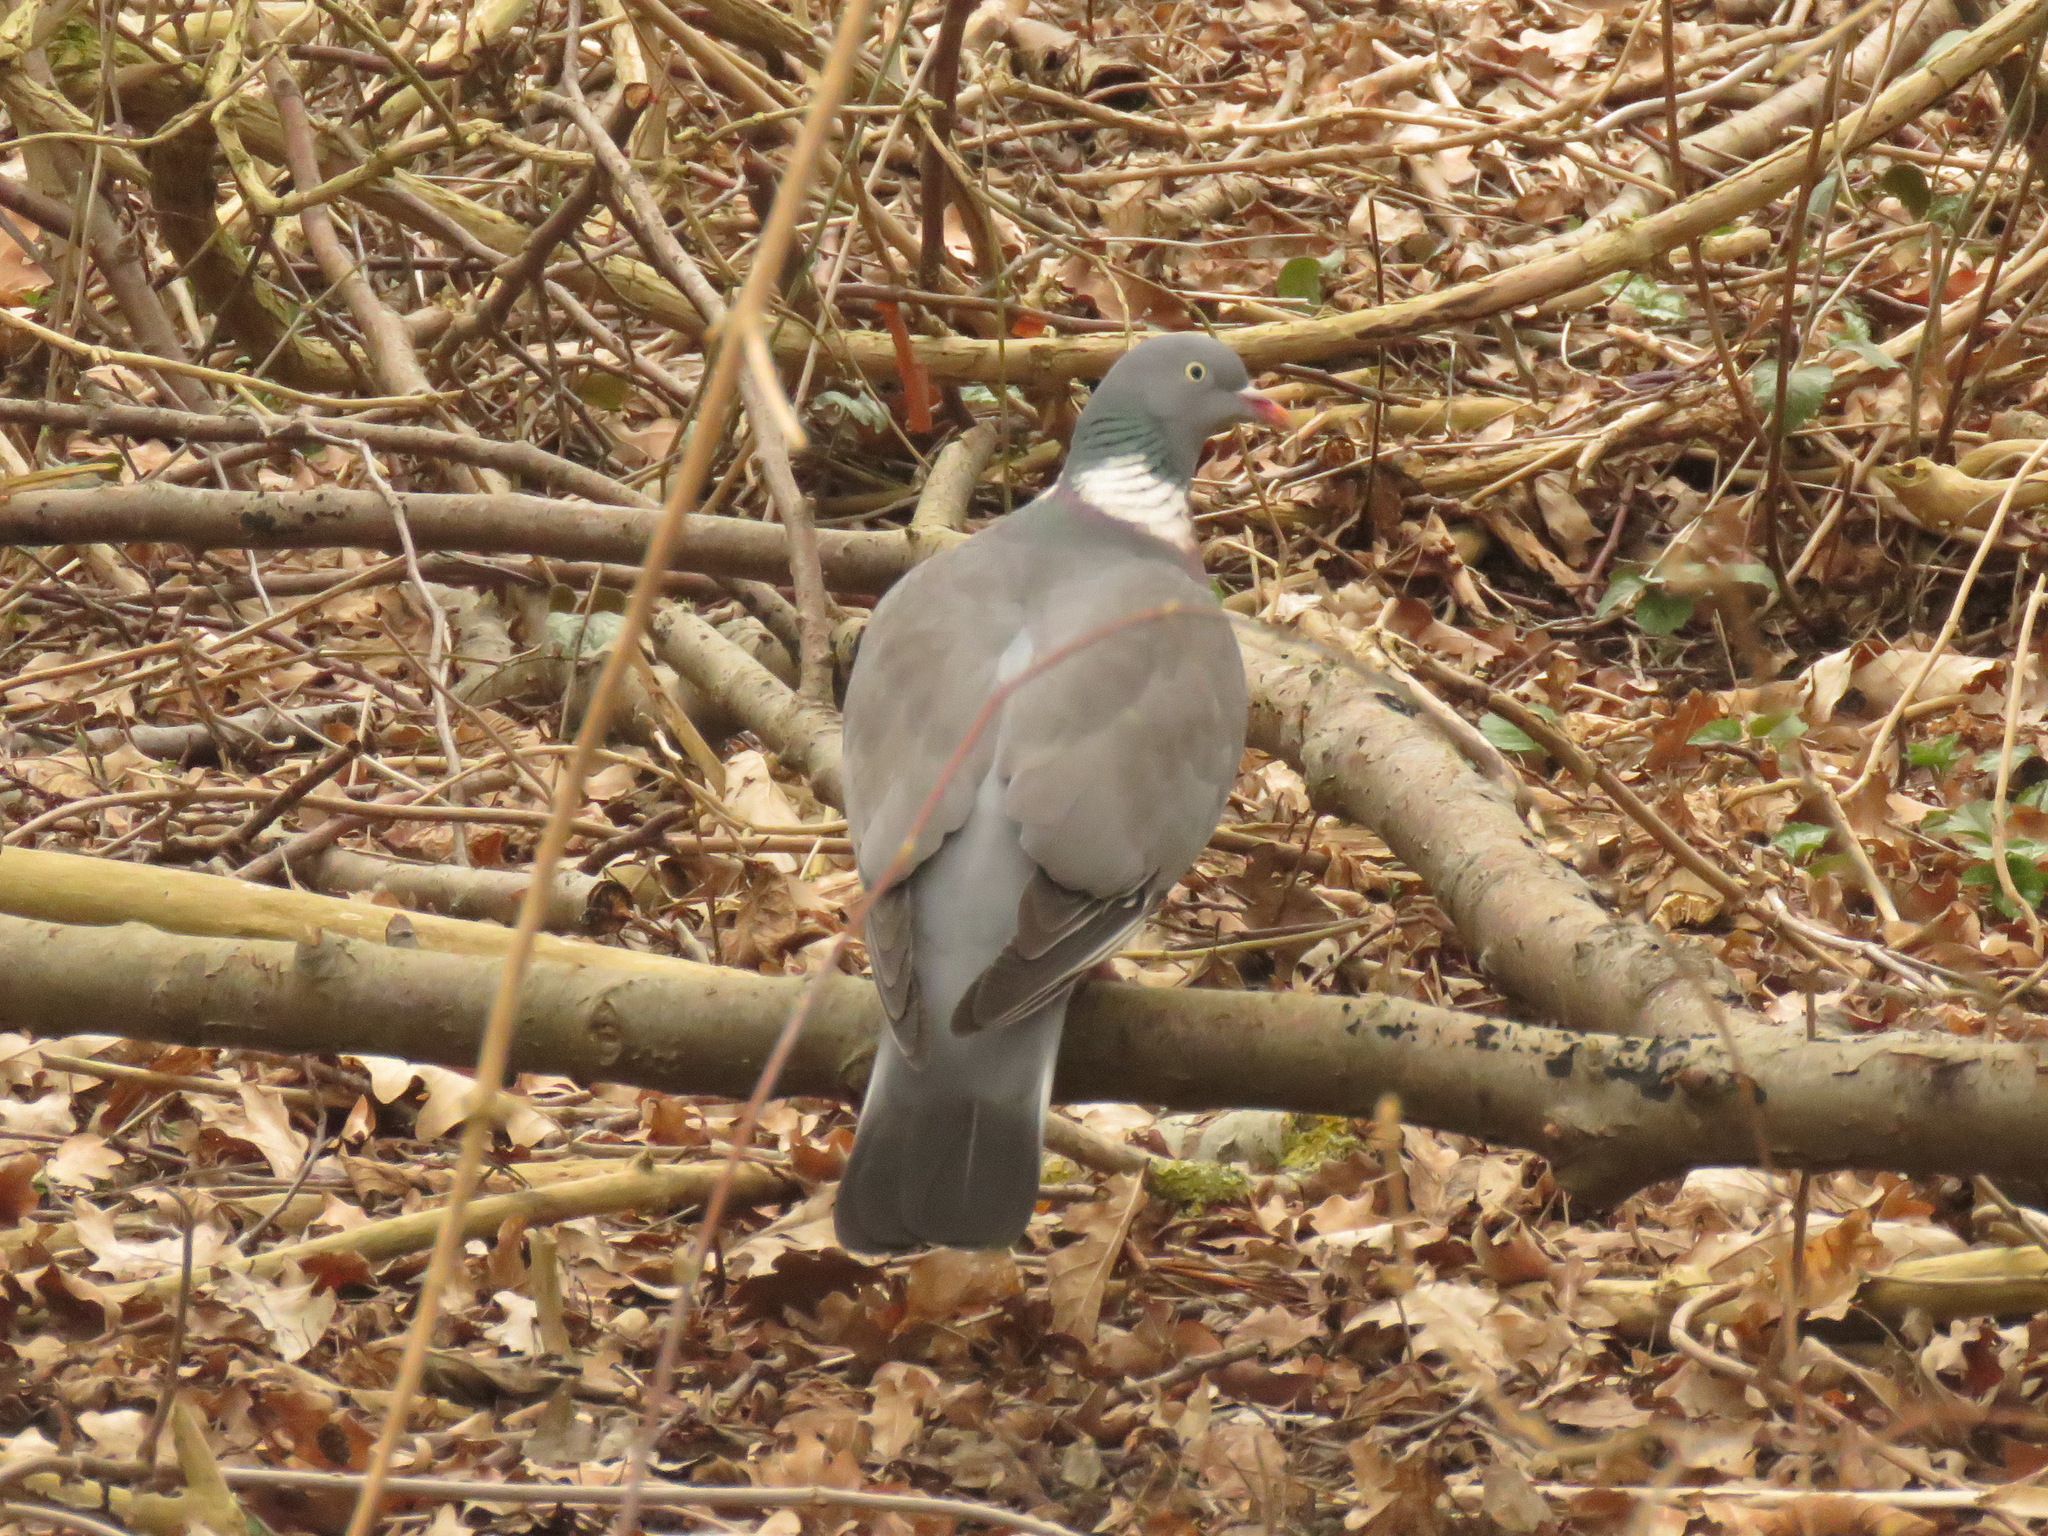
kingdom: Animalia
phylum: Chordata
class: Aves
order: Columbiformes
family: Columbidae
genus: Columba
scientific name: Columba palumbus
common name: Common wood pigeon
